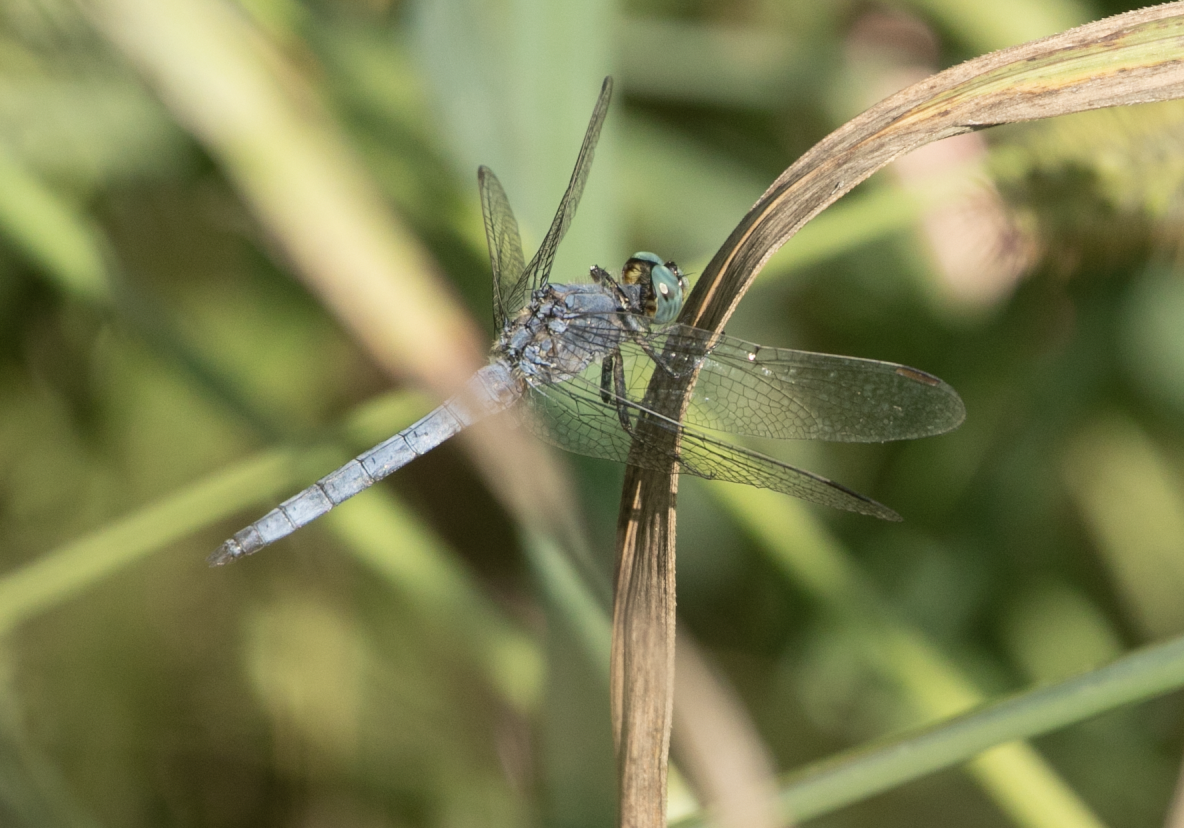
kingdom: Animalia
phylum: Arthropoda
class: Insecta
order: Odonata
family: Libellulidae
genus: Orthetrum
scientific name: Orthetrum coerulescens
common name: Keeled skimmer
